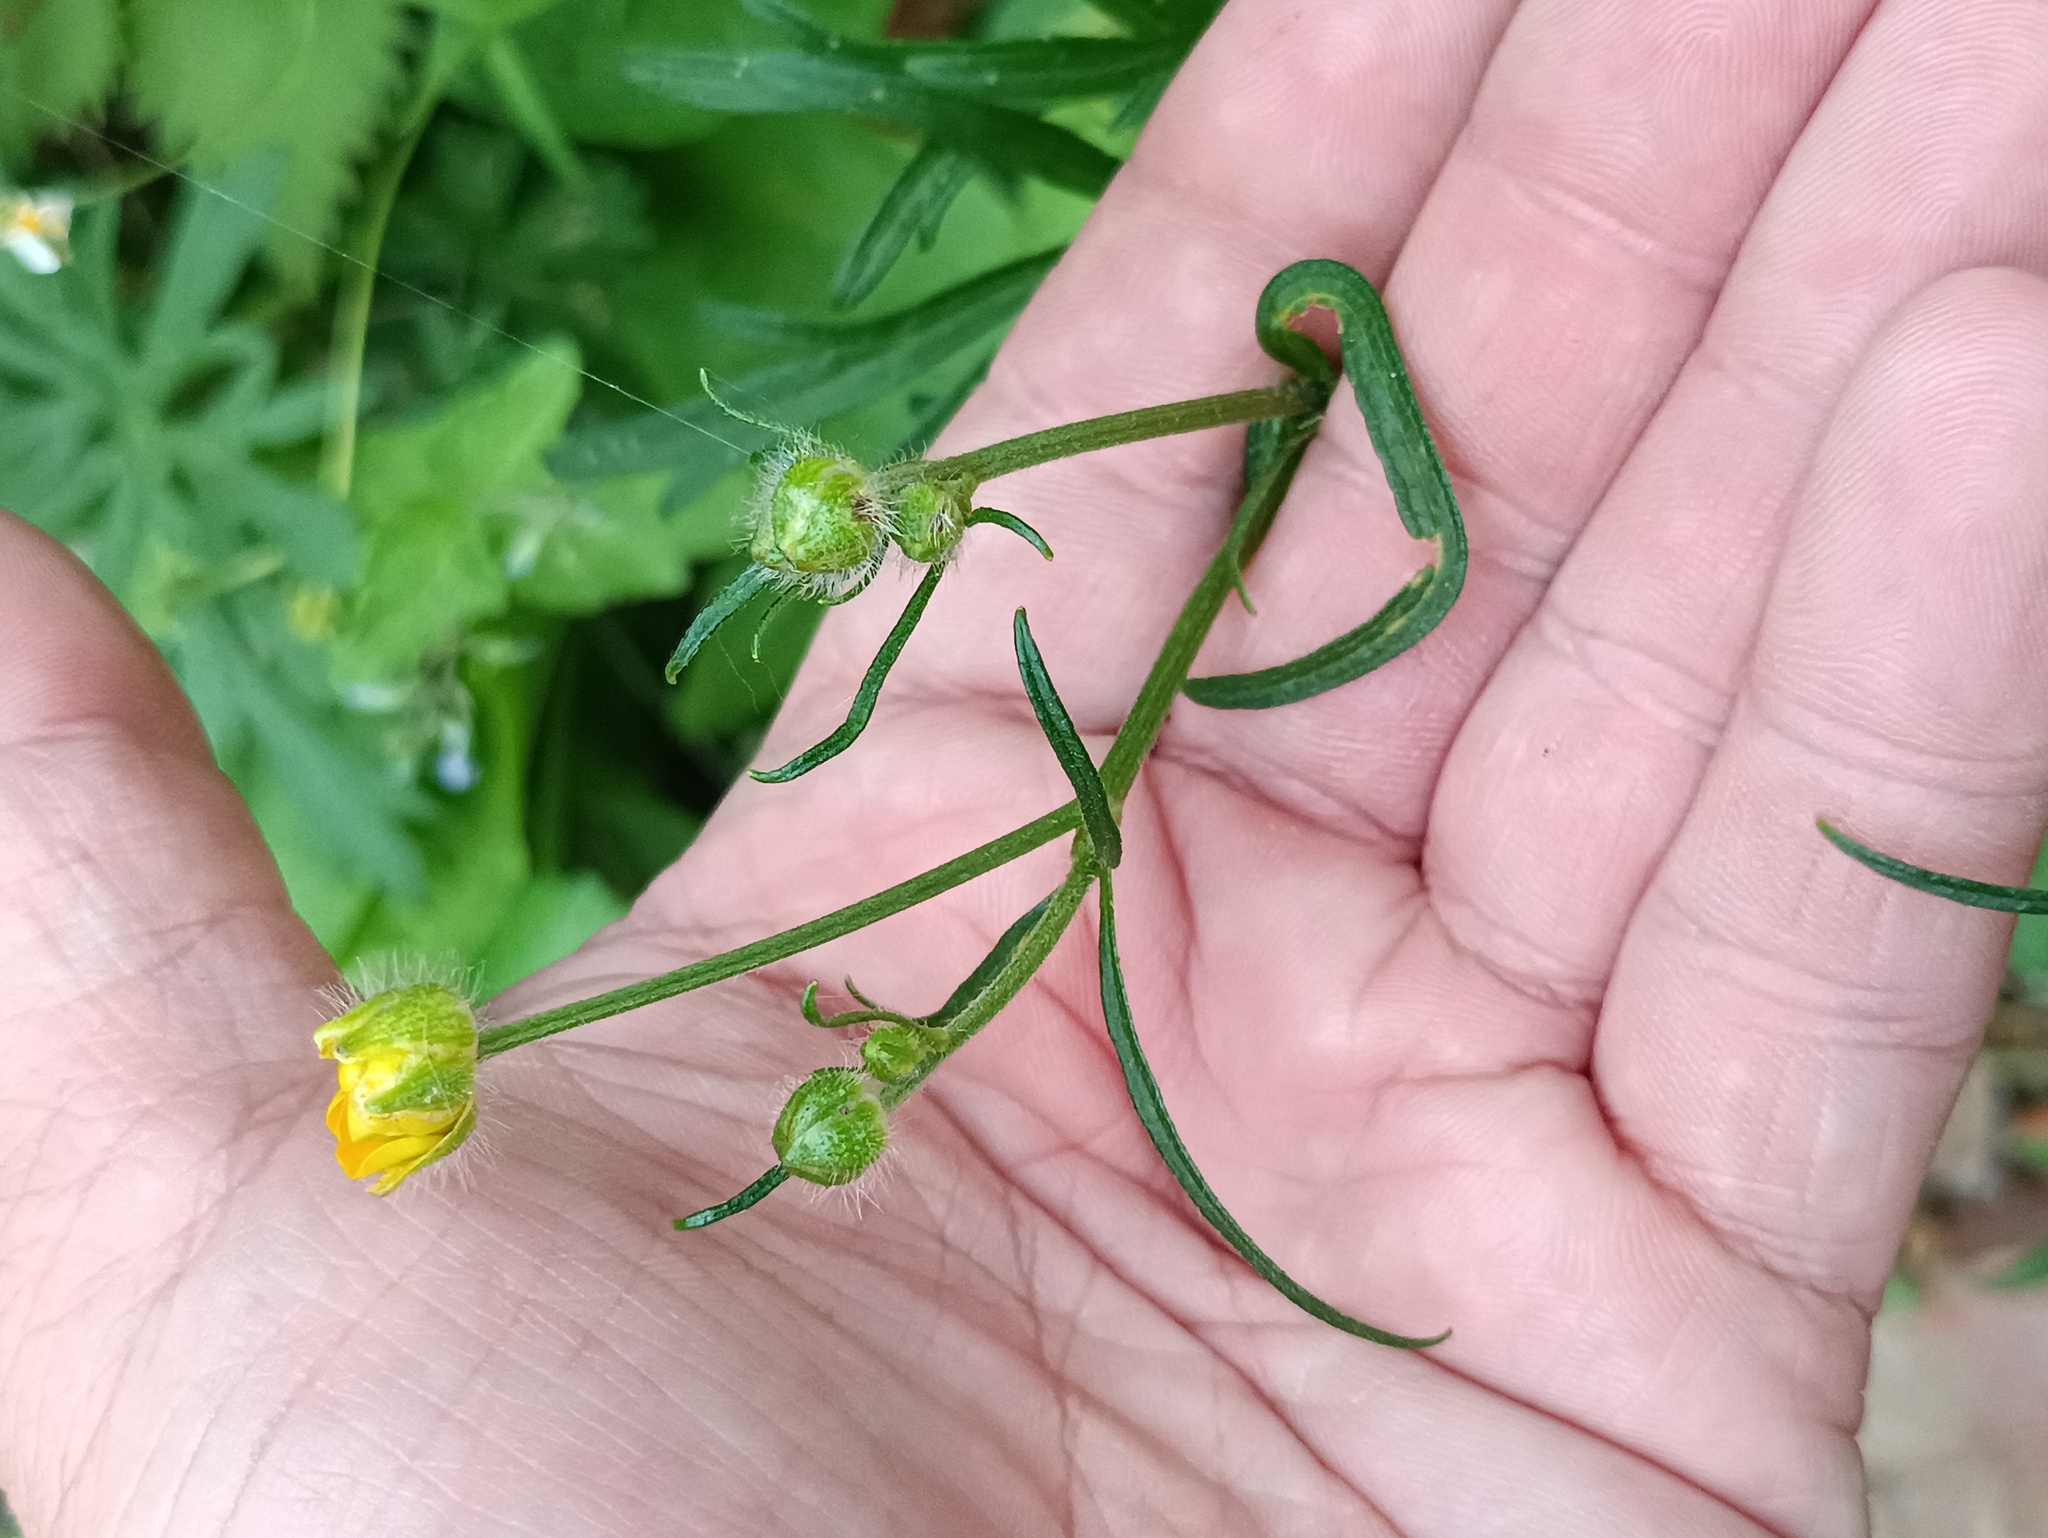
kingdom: Plantae
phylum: Tracheophyta
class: Magnoliopsida
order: Ranunculales
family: Ranunculaceae
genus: Ranunculus
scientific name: Ranunculus polyanthemos
